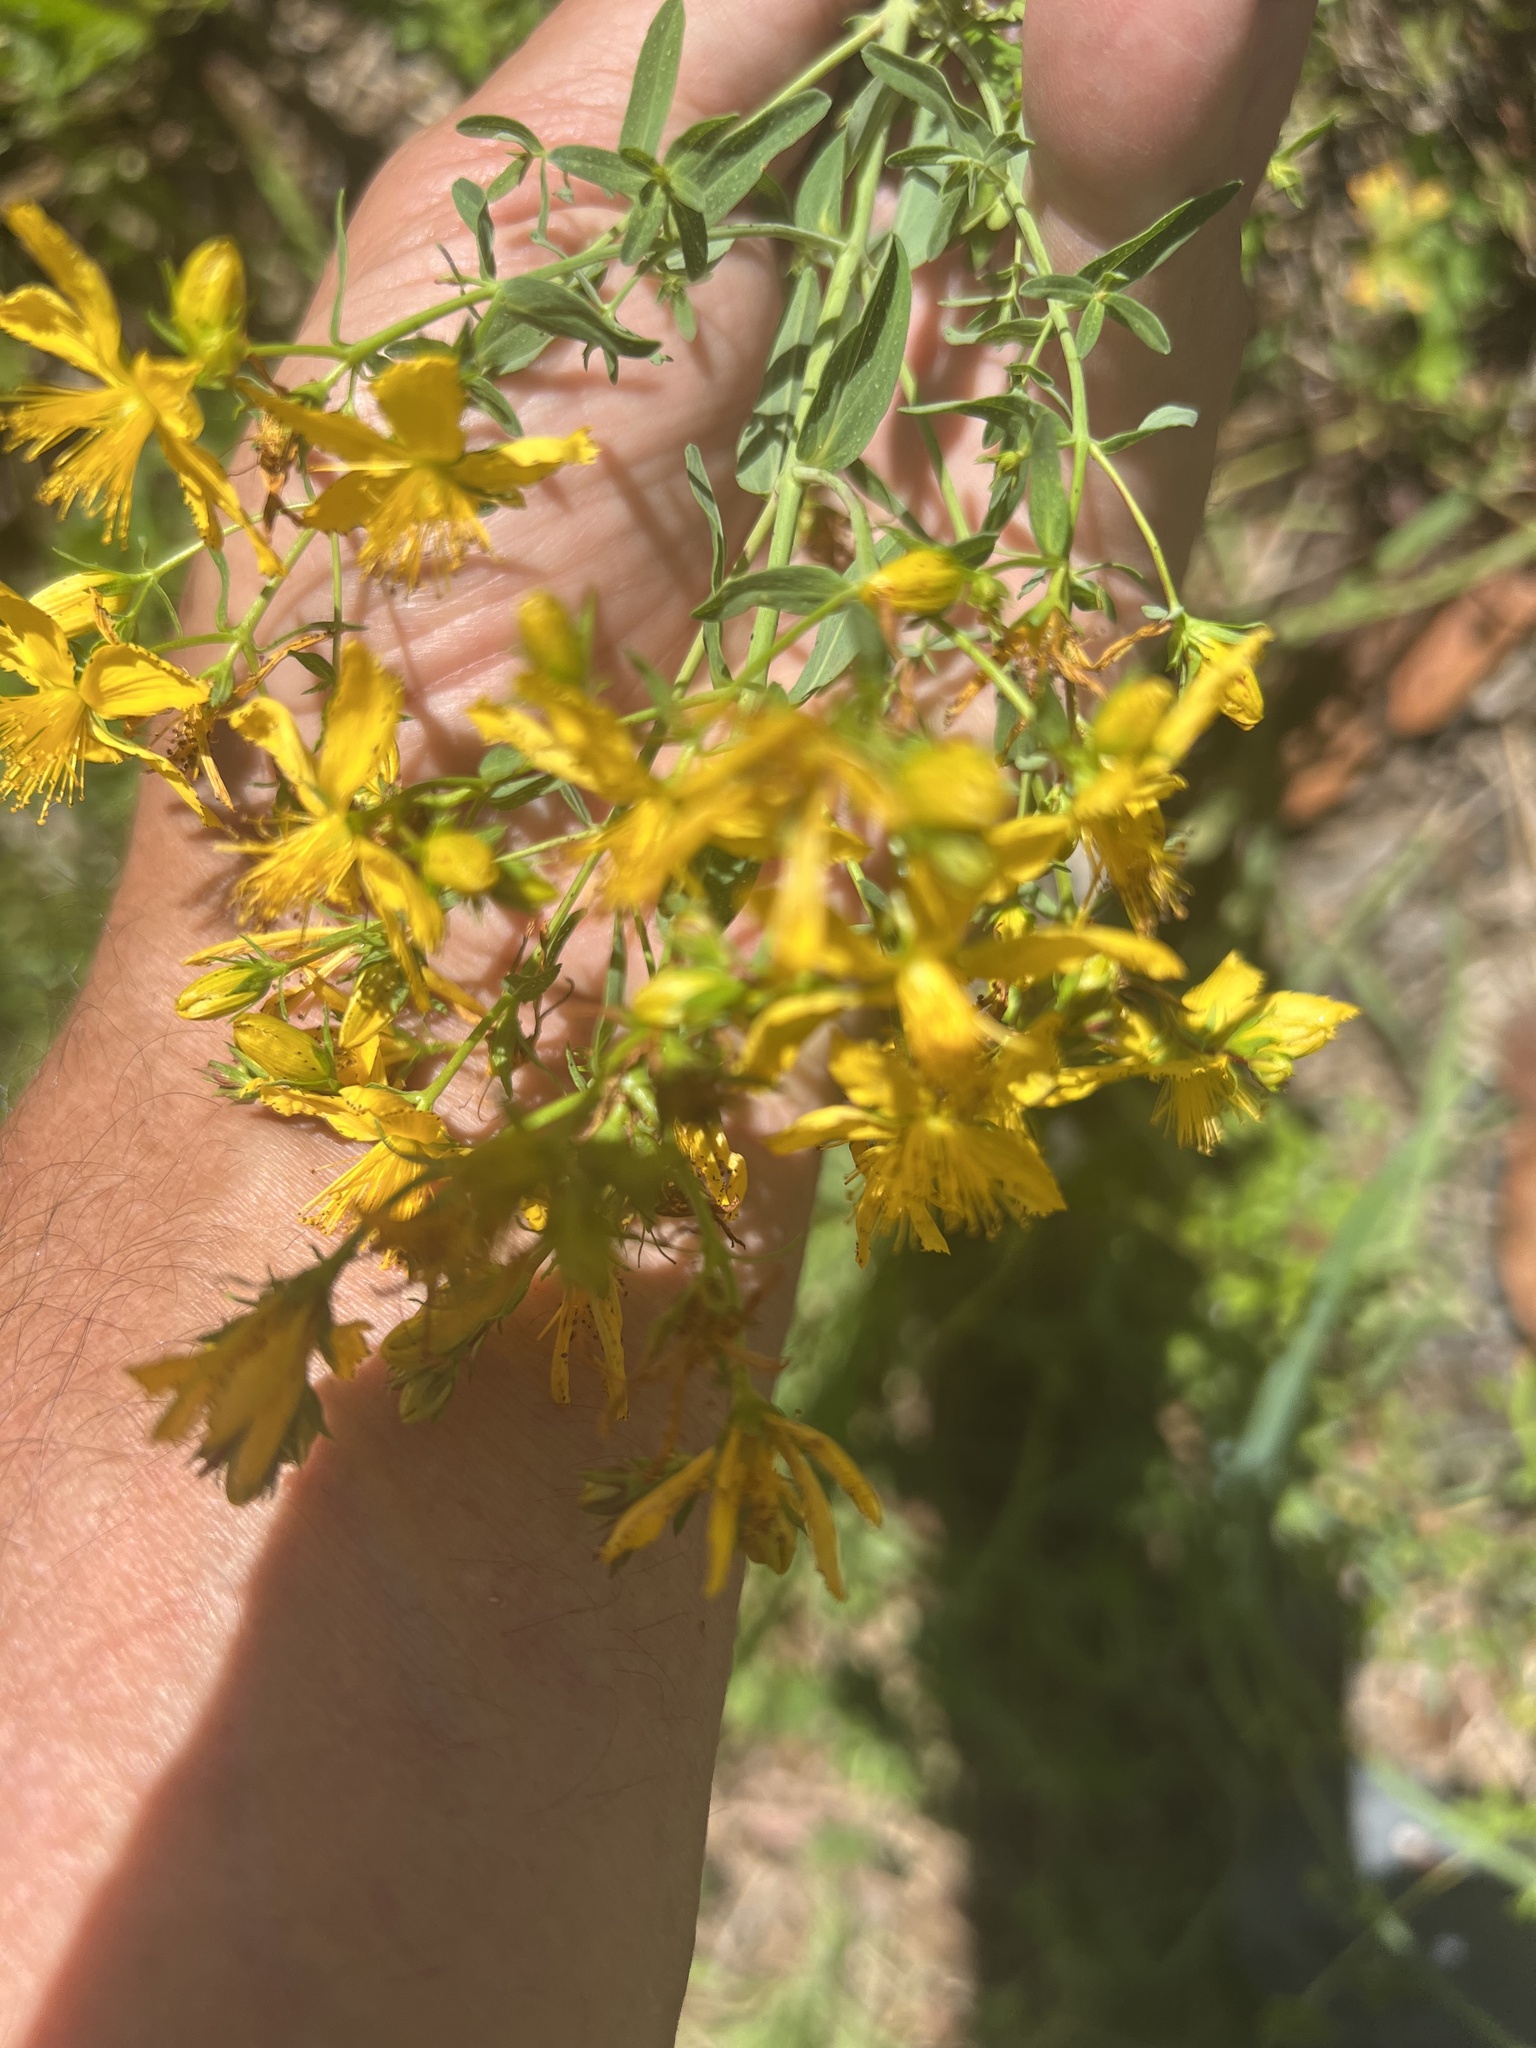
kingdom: Plantae
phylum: Tracheophyta
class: Magnoliopsida
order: Malpighiales
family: Hypericaceae
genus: Hypericum
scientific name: Hypericum perforatum
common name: Common st. johnswort
